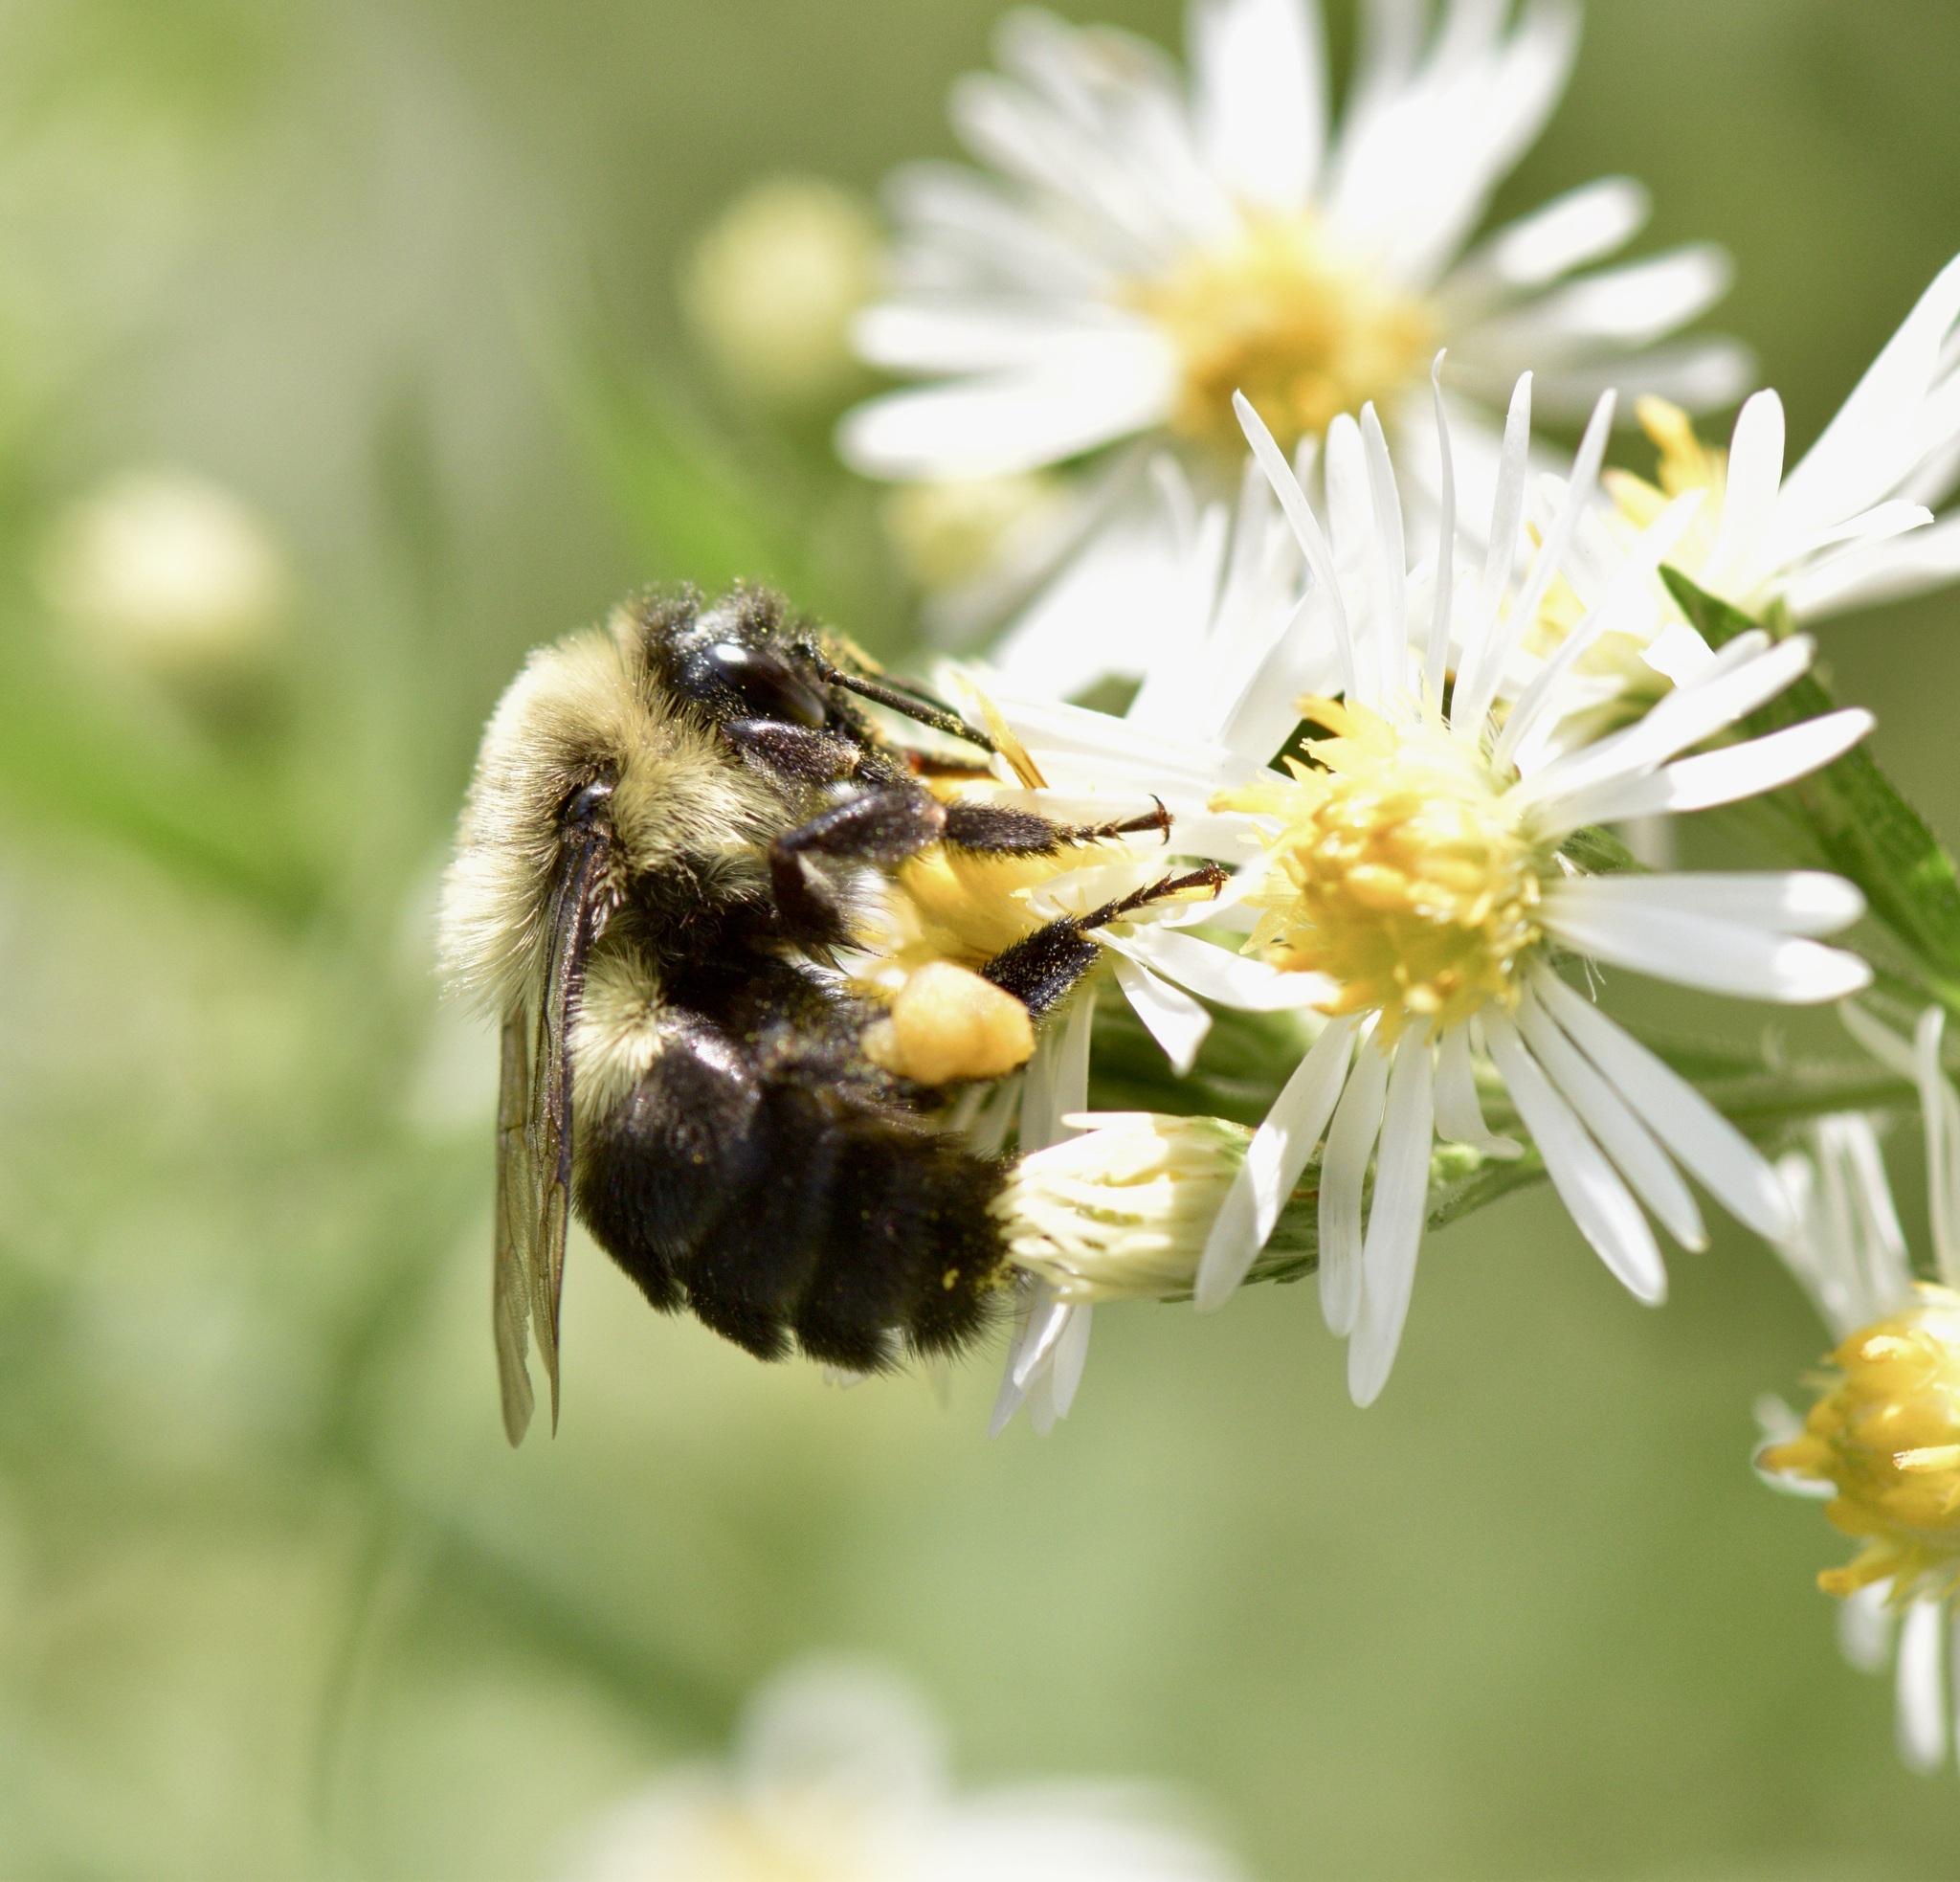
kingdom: Animalia
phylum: Arthropoda
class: Insecta
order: Hymenoptera
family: Apidae
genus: Bombus
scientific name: Bombus impatiens
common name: Common eastern bumble bee
